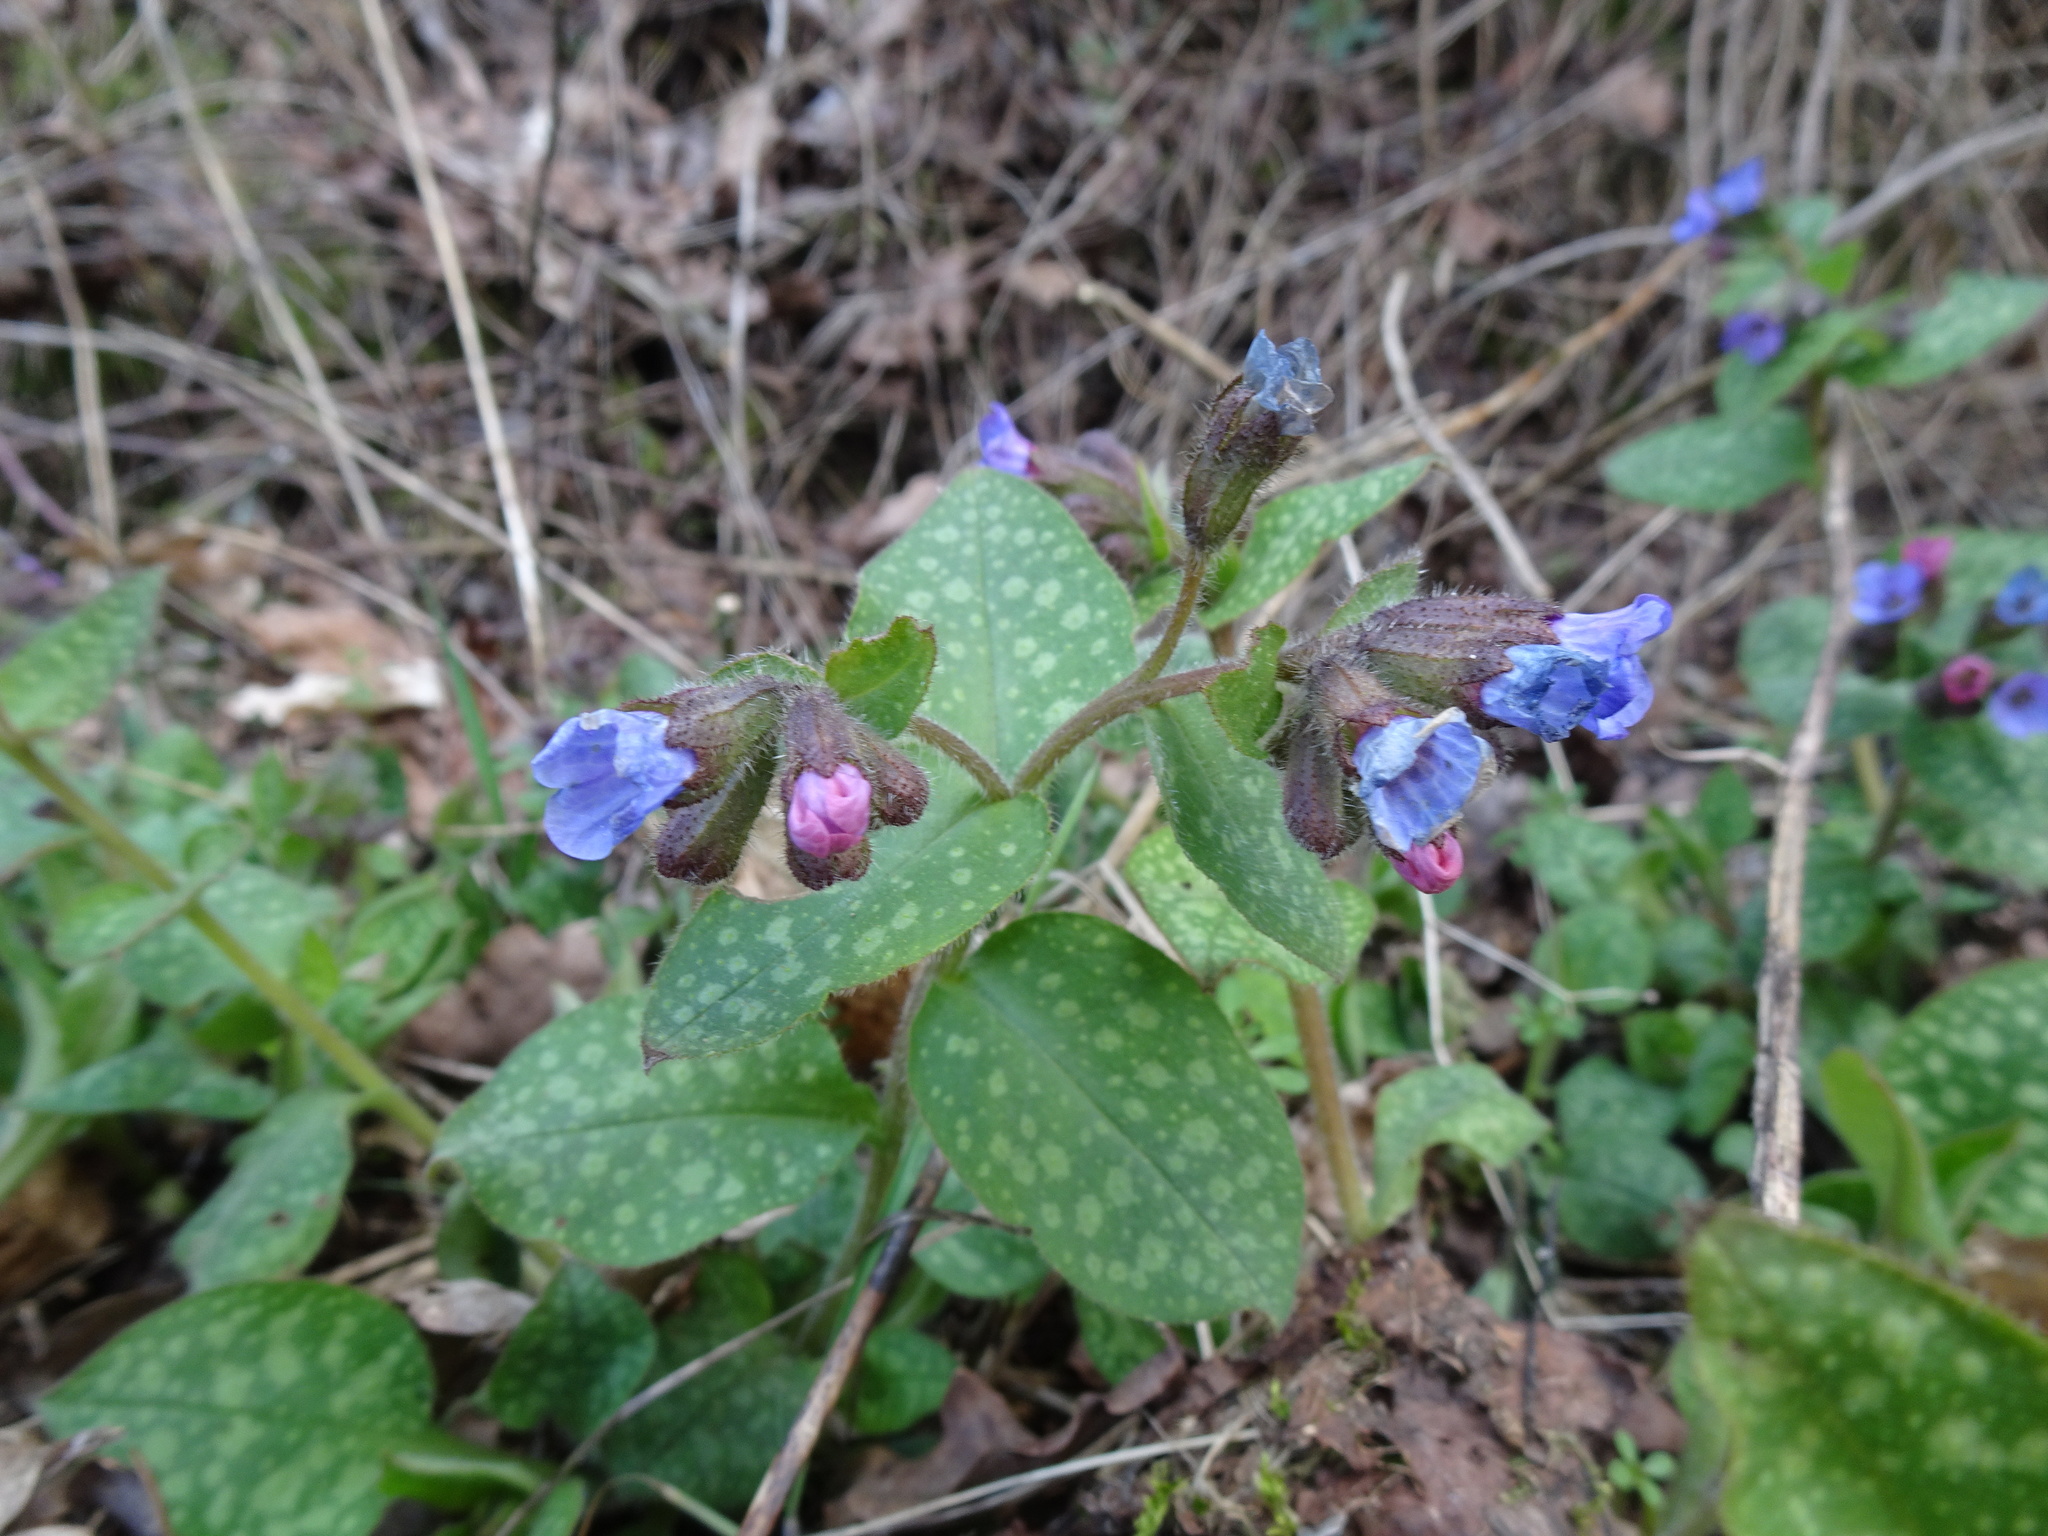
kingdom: Plantae
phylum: Tracheophyta
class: Magnoliopsida
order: Boraginales
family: Boraginaceae
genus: Pulmonaria
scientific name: Pulmonaria officinalis
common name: Lungwort
